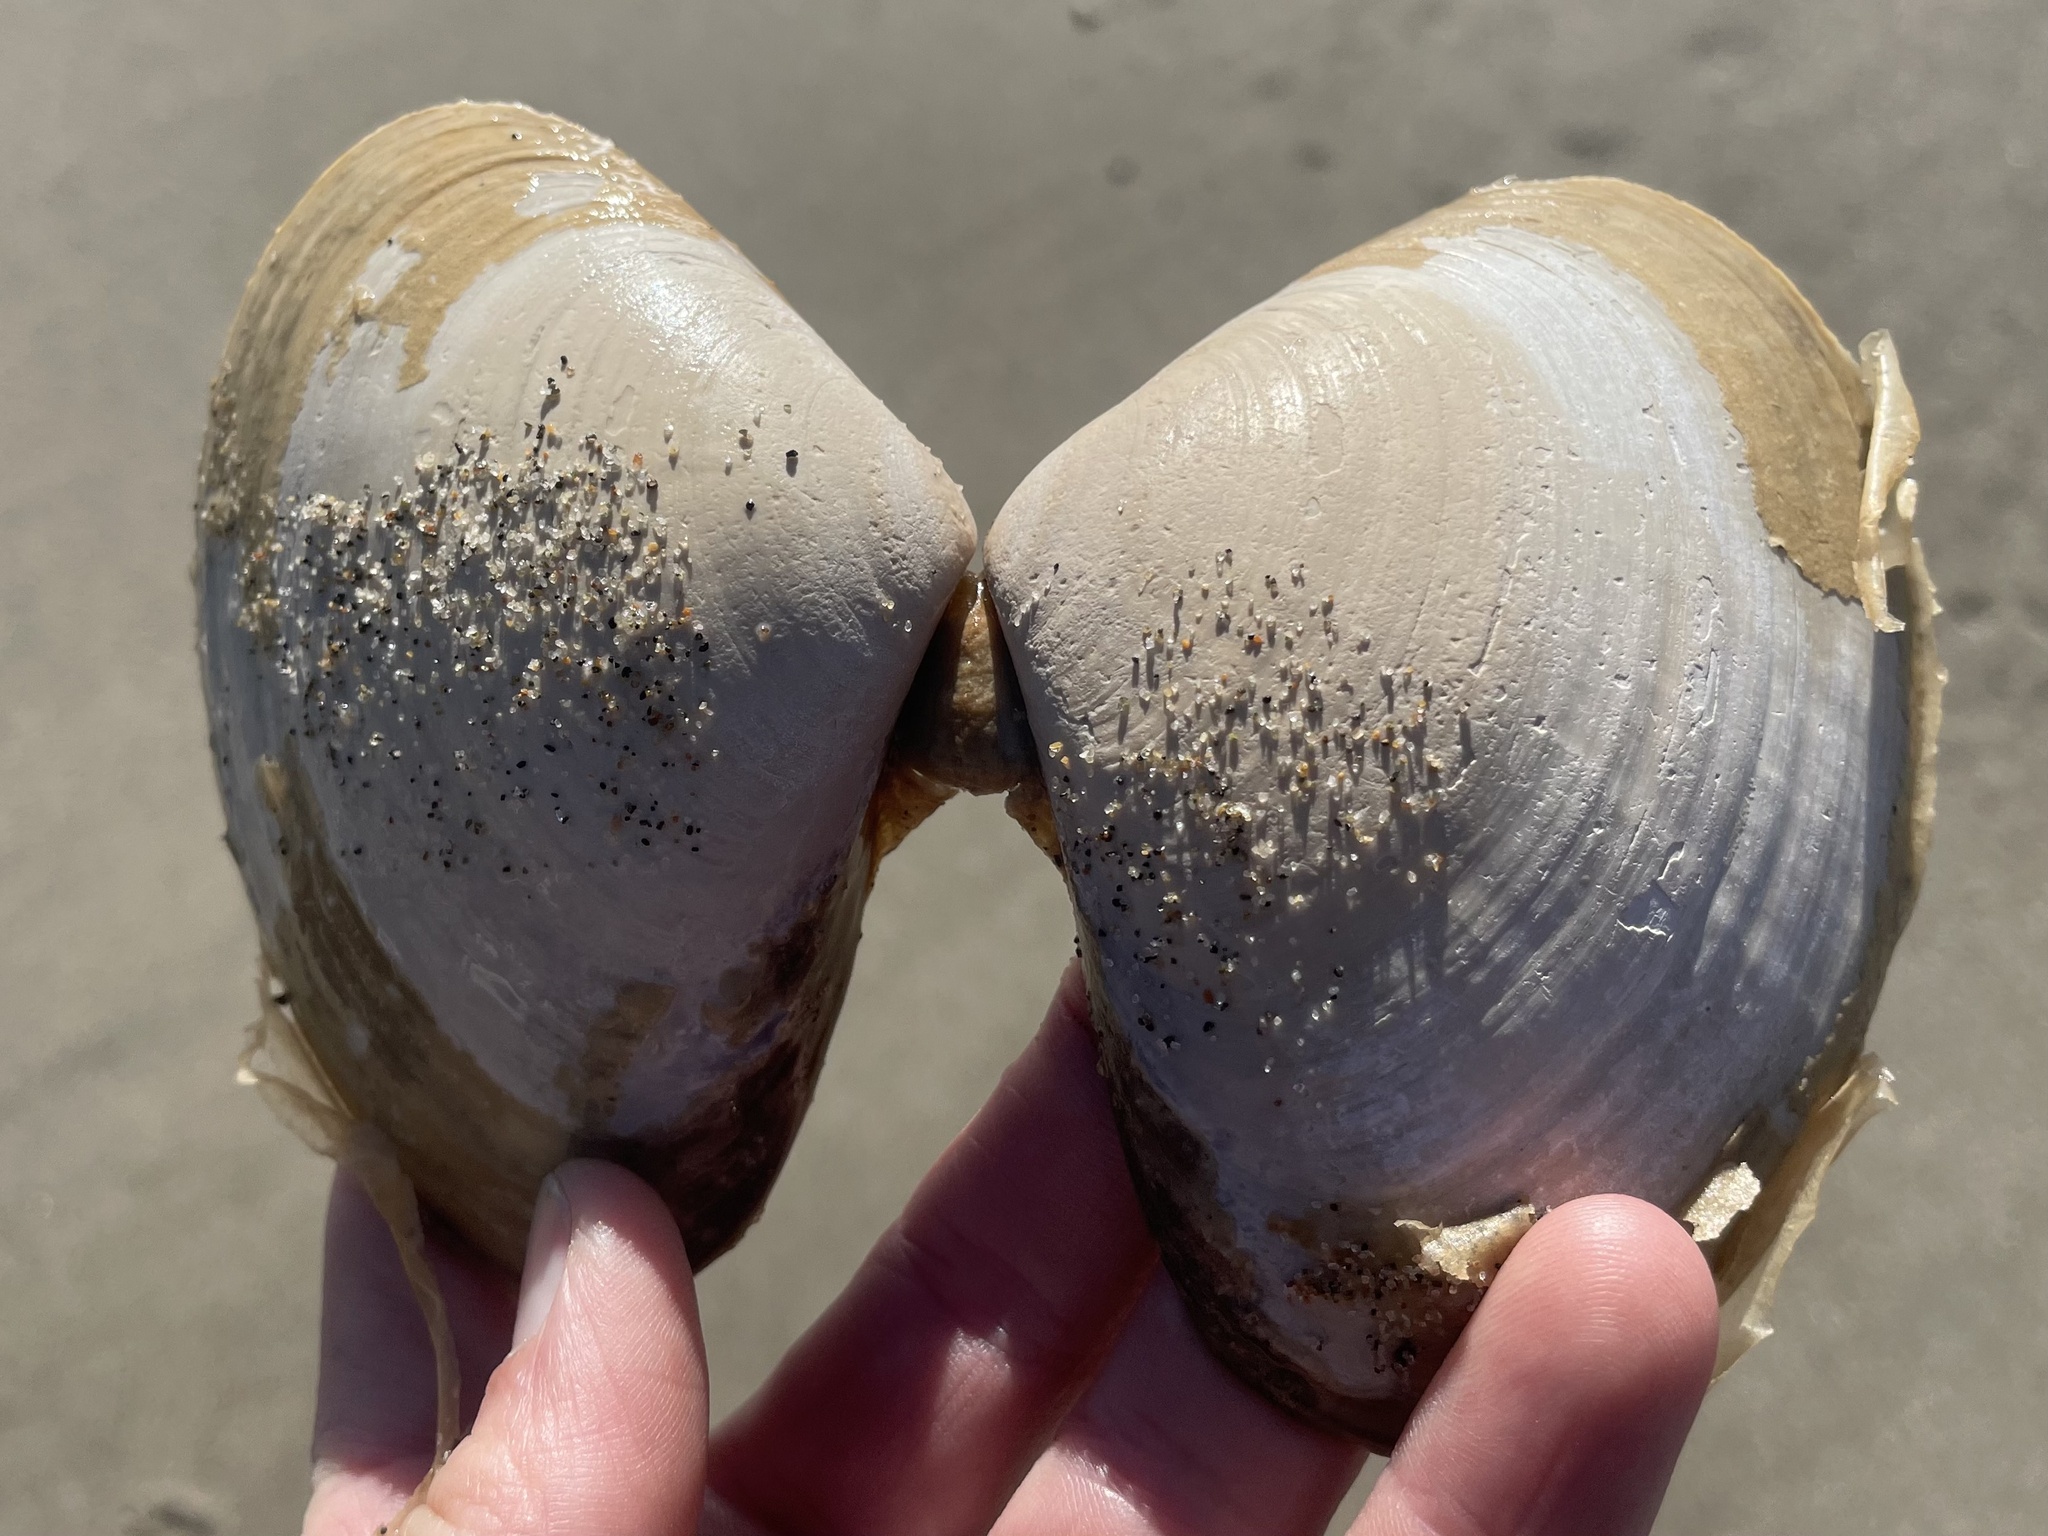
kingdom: Animalia
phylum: Mollusca
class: Bivalvia
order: Venerida
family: Veneridae
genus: Tivela
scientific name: Tivela stultorum
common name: Pismo clam
